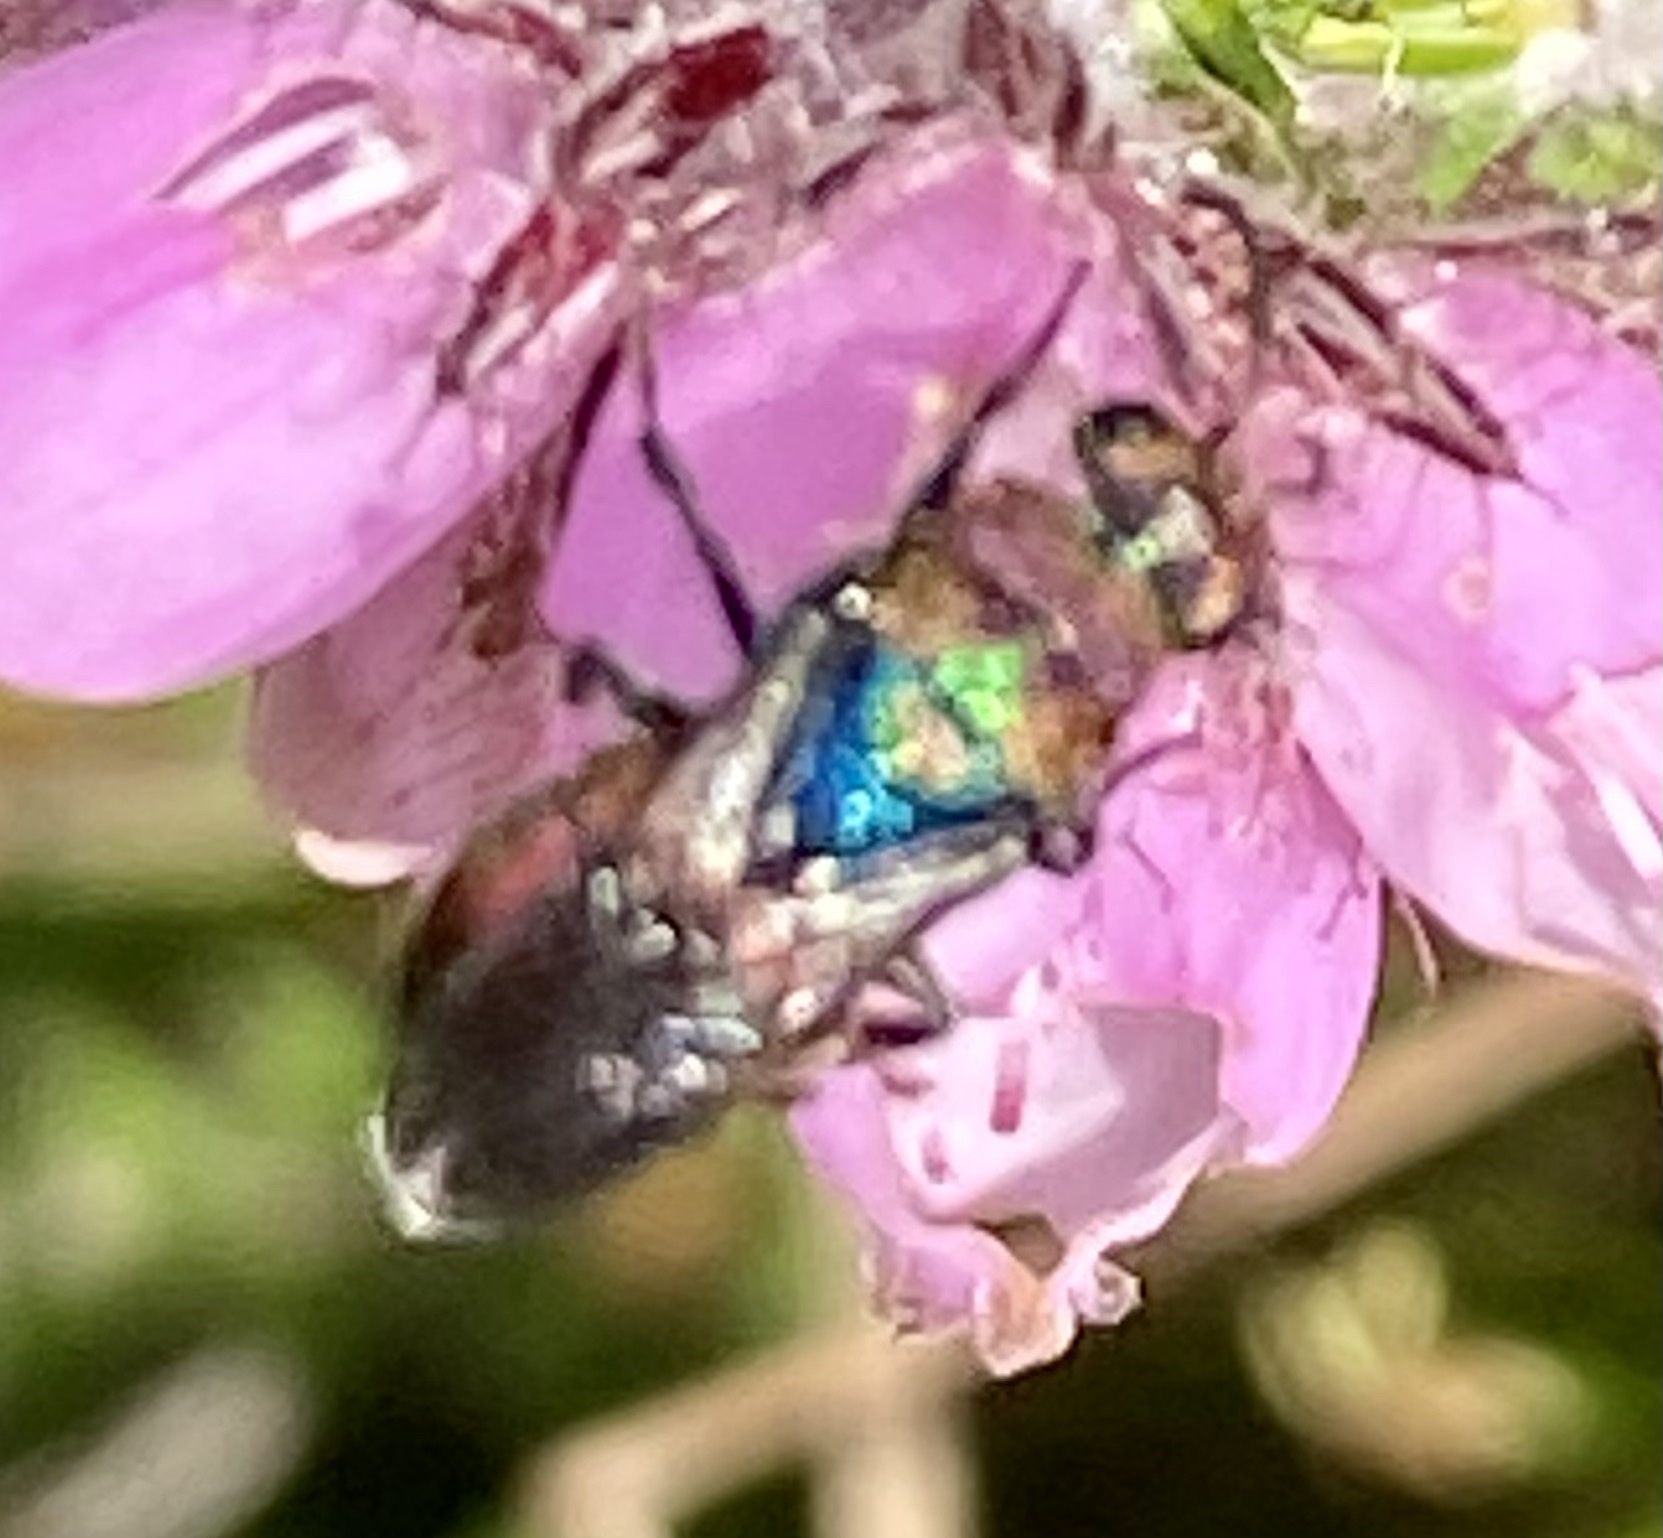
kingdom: Animalia
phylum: Arthropoda
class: Insecta
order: Hymenoptera
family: Chrysididae
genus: Hedychrum
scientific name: Hedychrum rutilans
